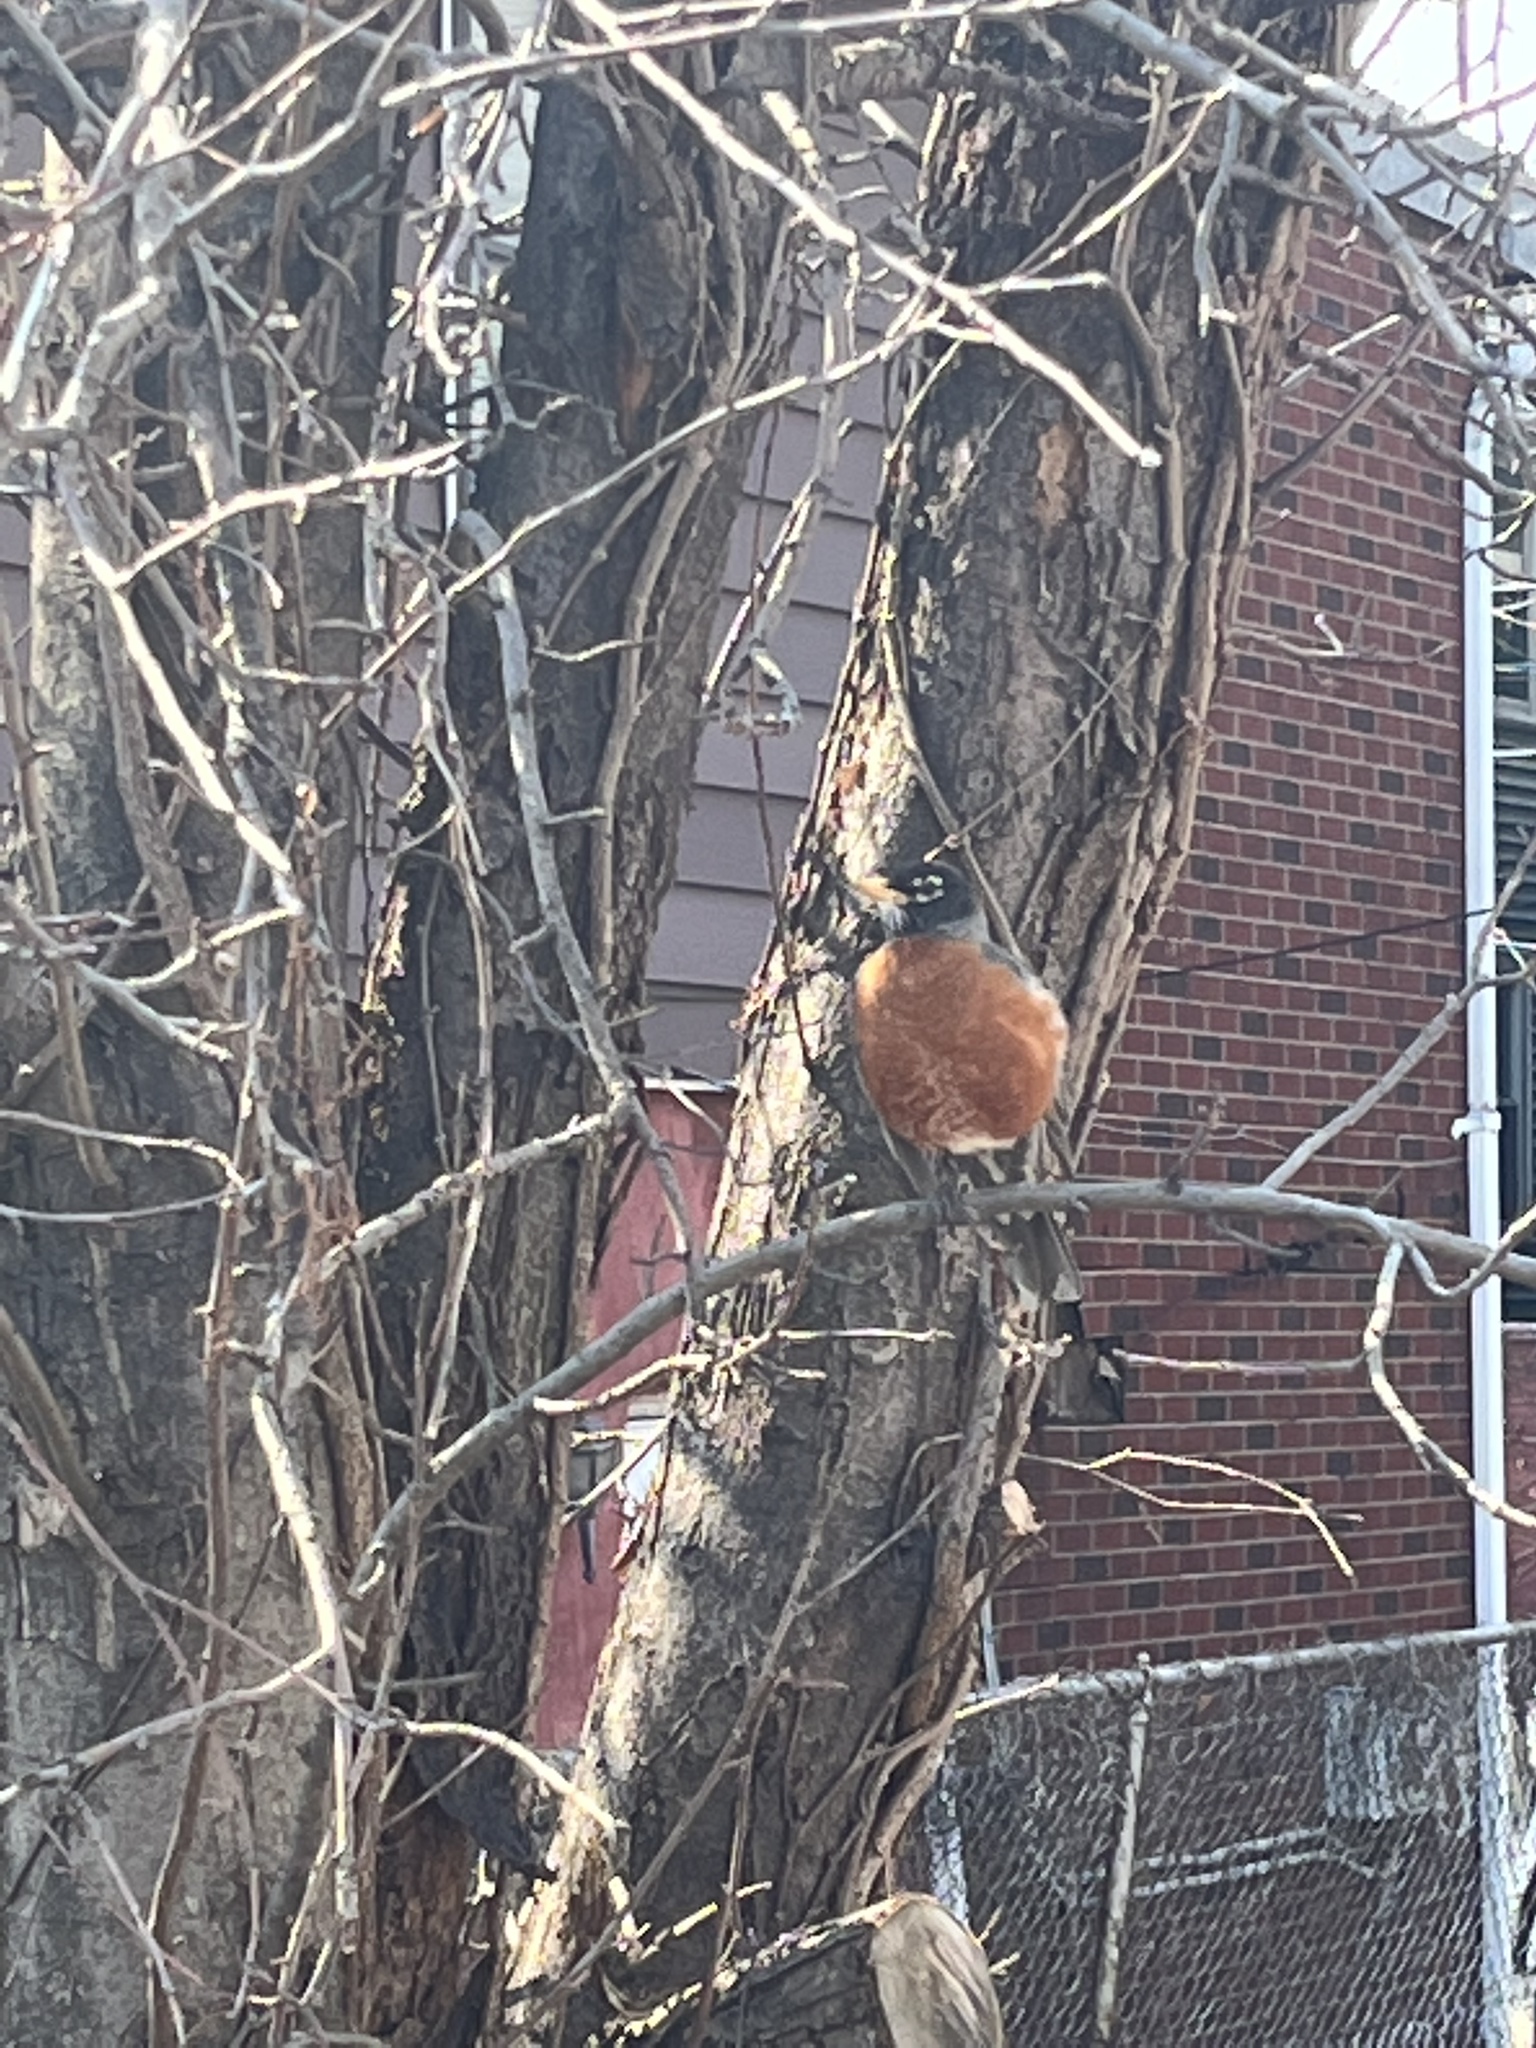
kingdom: Animalia
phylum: Chordata
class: Aves
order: Passeriformes
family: Turdidae
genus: Turdus
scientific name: Turdus migratorius
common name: American robin
